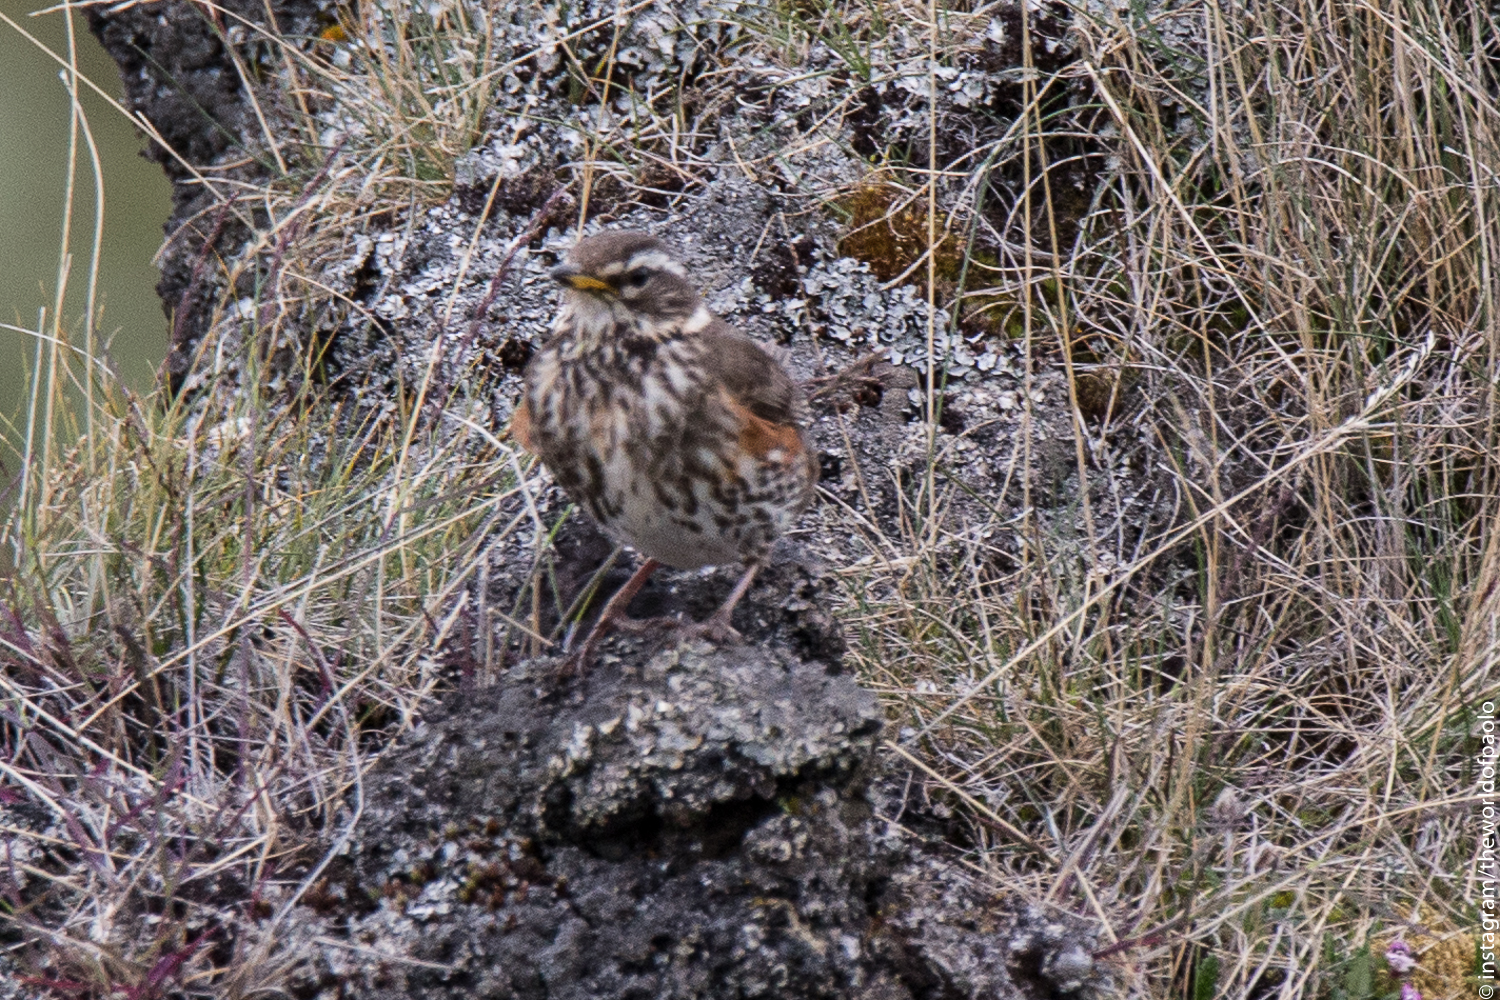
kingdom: Animalia
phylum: Chordata
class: Aves
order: Passeriformes
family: Turdidae
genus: Turdus
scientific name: Turdus iliacus
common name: Redwing
